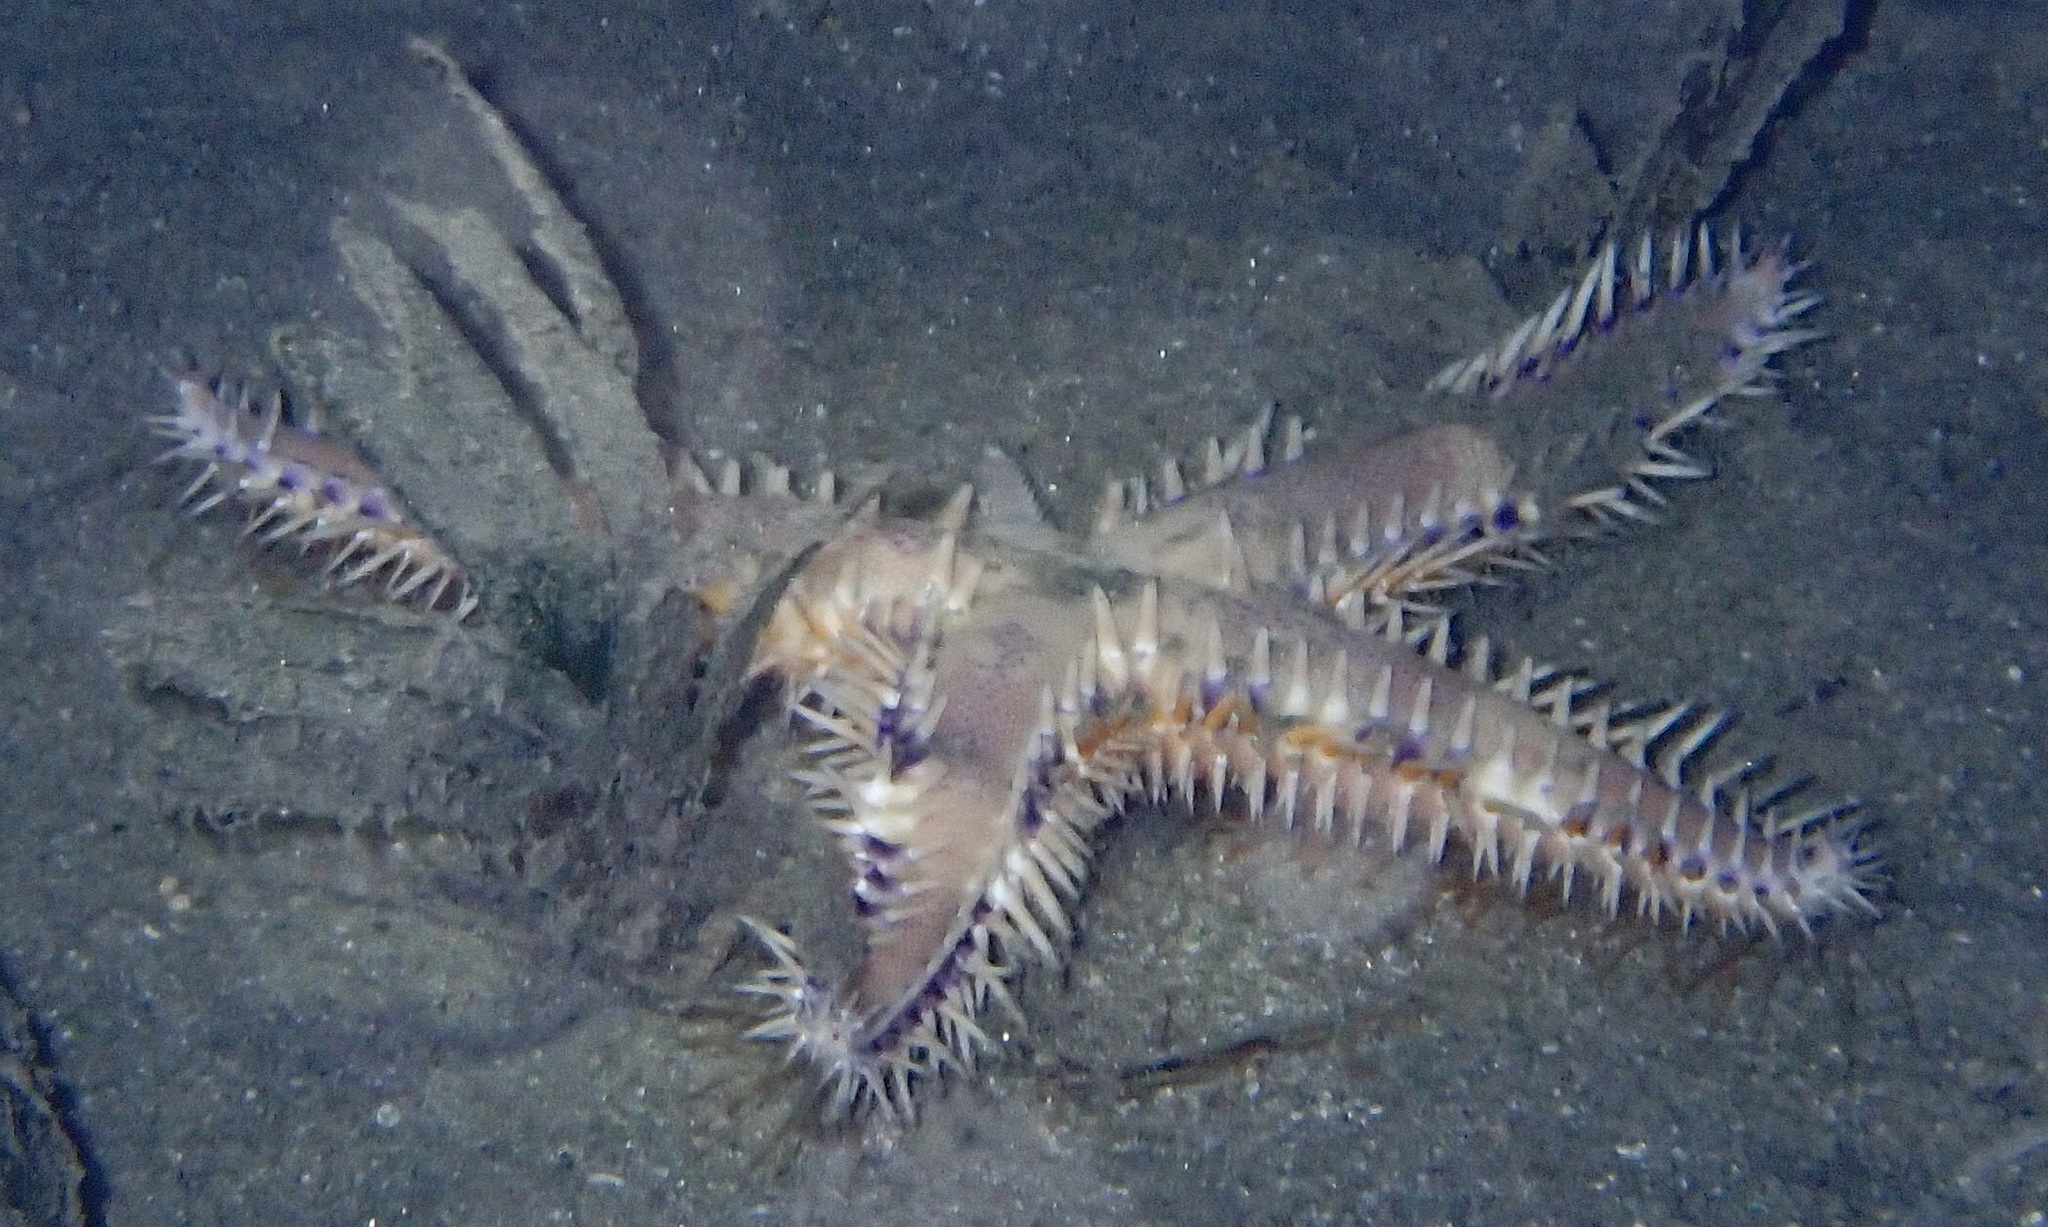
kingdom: Animalia
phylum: Echinodermata
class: Asteroidea
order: Paxillosida
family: Astropectinidae
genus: Astropecten
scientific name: Astropecten polyacanthus
